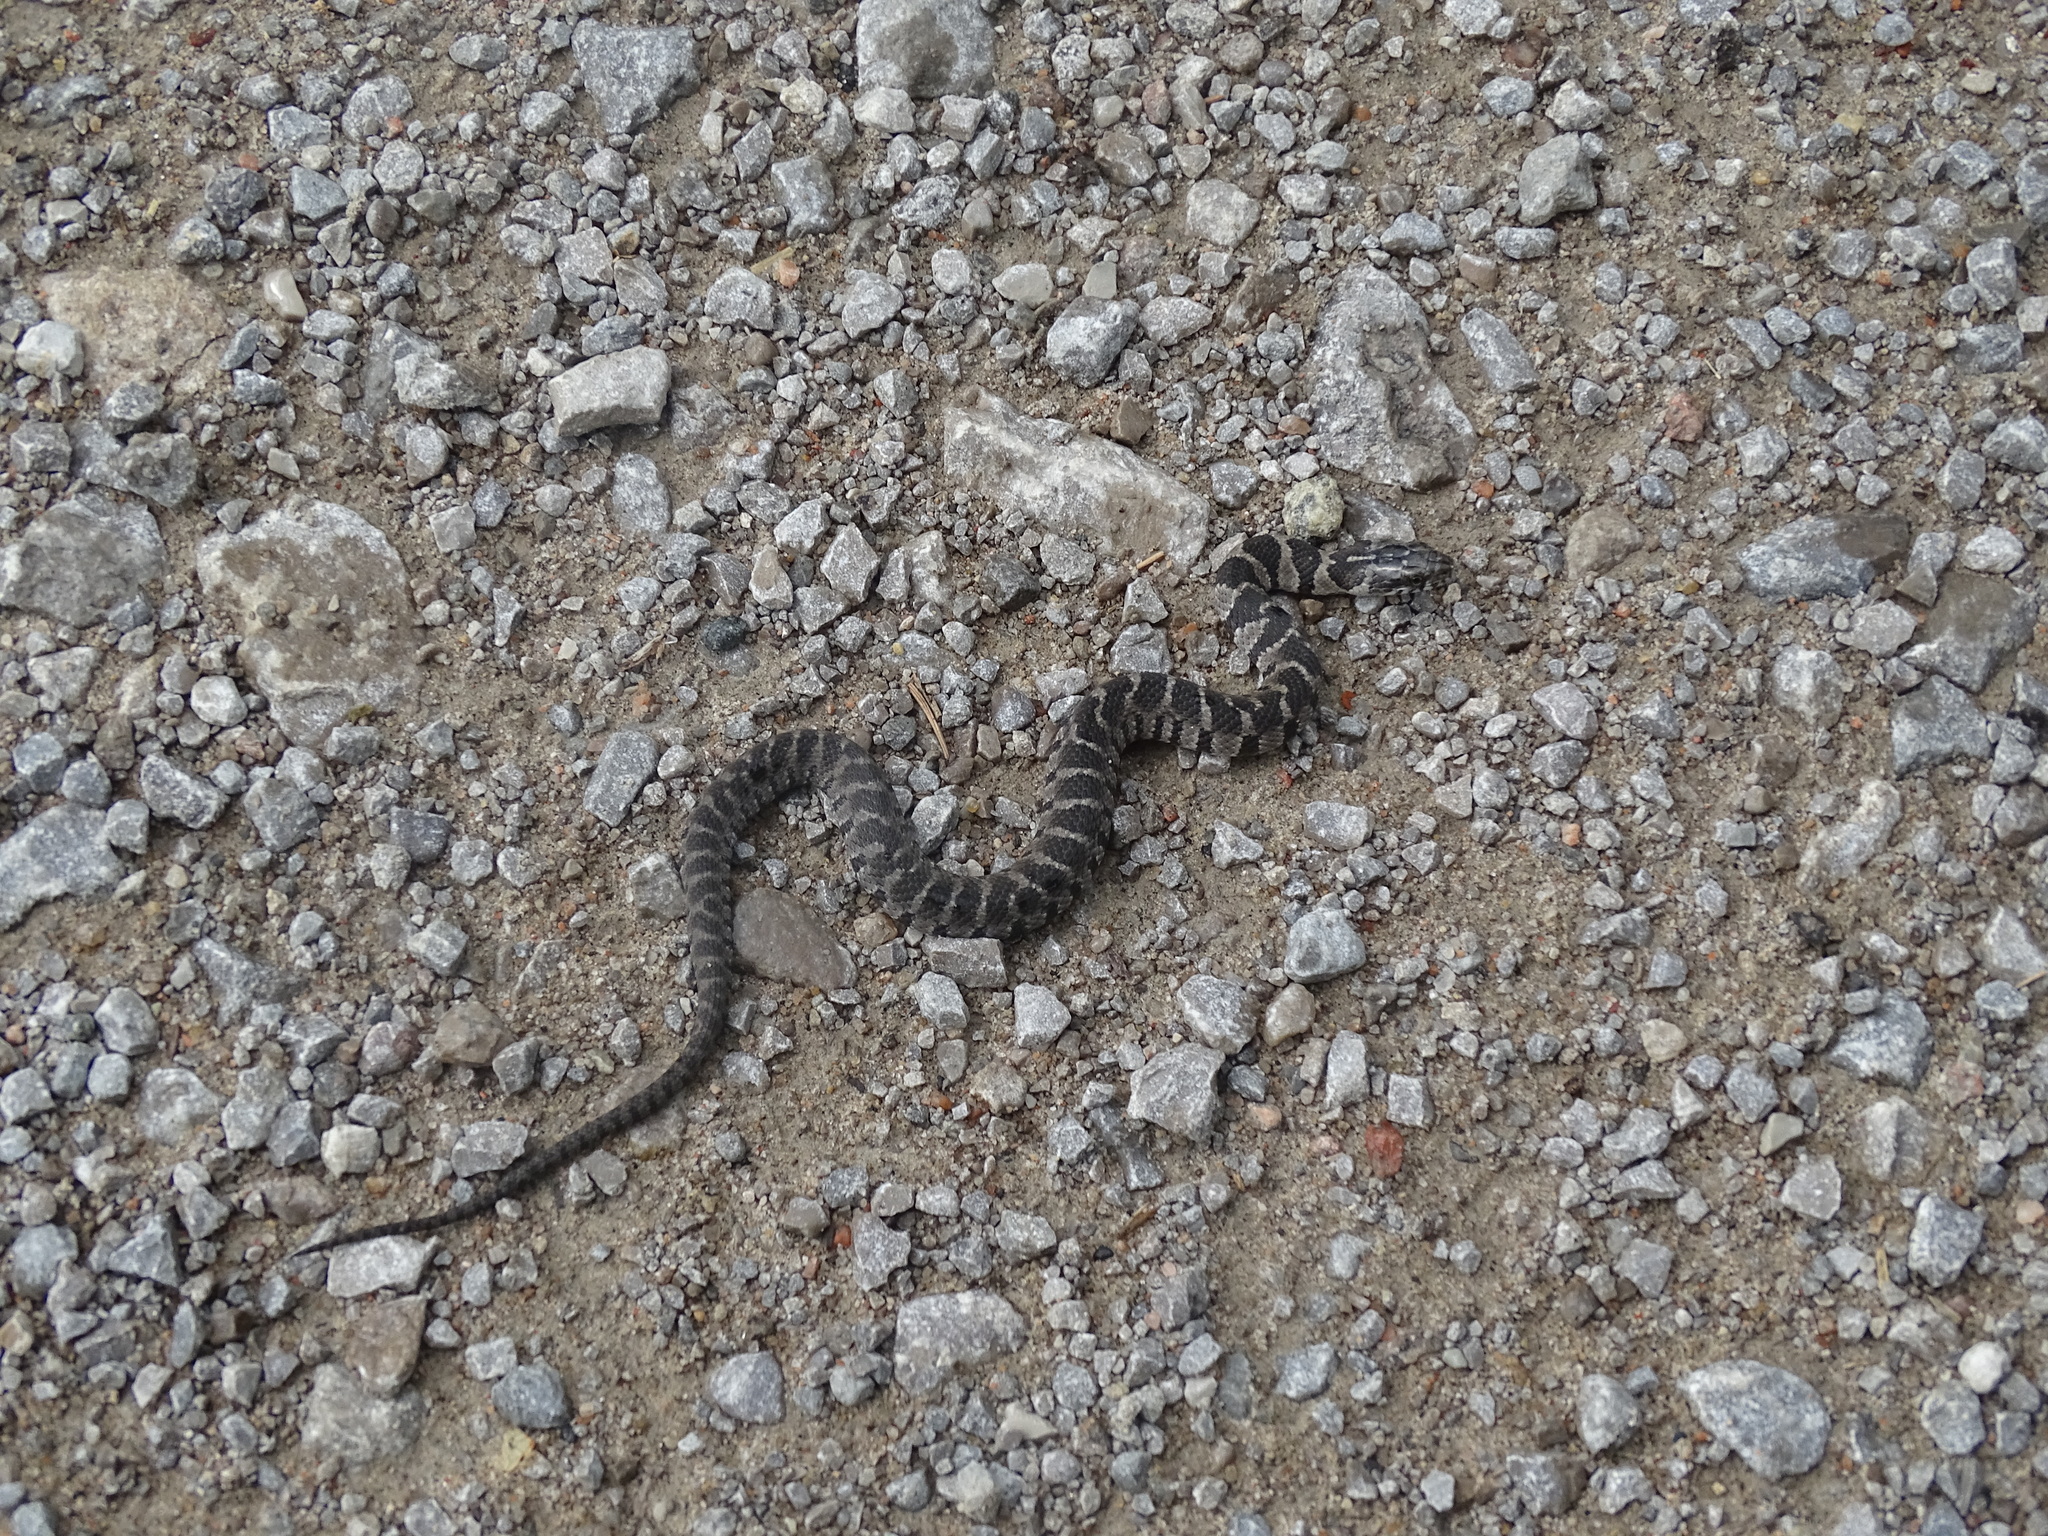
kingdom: Animalia
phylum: Chordata
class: Squamata
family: Colubridae
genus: Nerodia
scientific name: Nerodia sipedon
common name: Northern water snake
